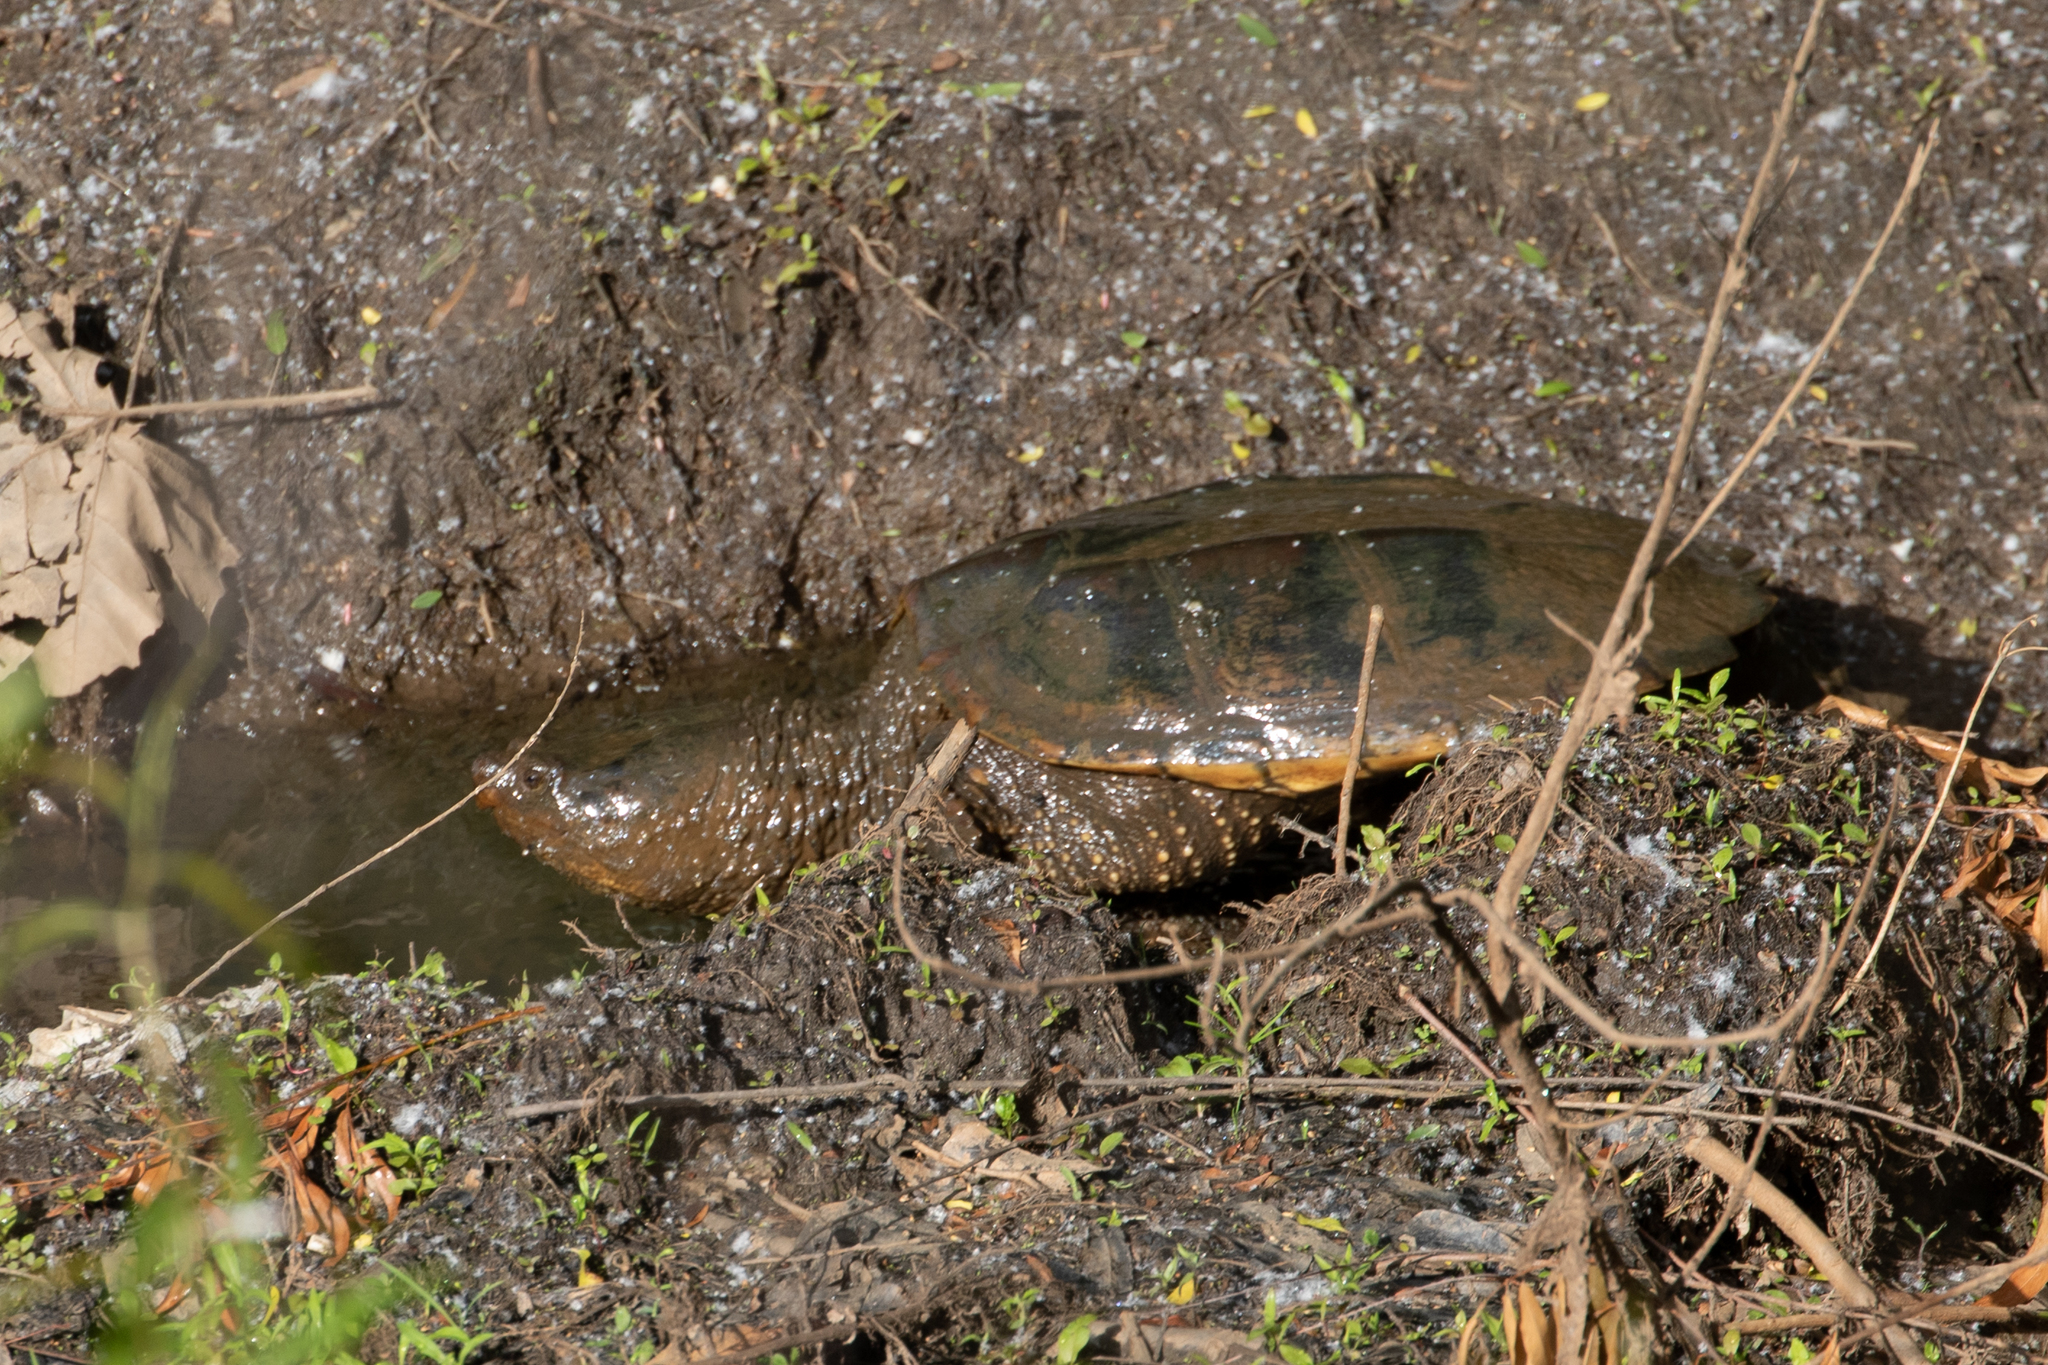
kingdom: Animalia
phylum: Chordata
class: Testudines
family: Chelydridae
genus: Chelydra
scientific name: Chelydra serpentina
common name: Common snapping turtle
